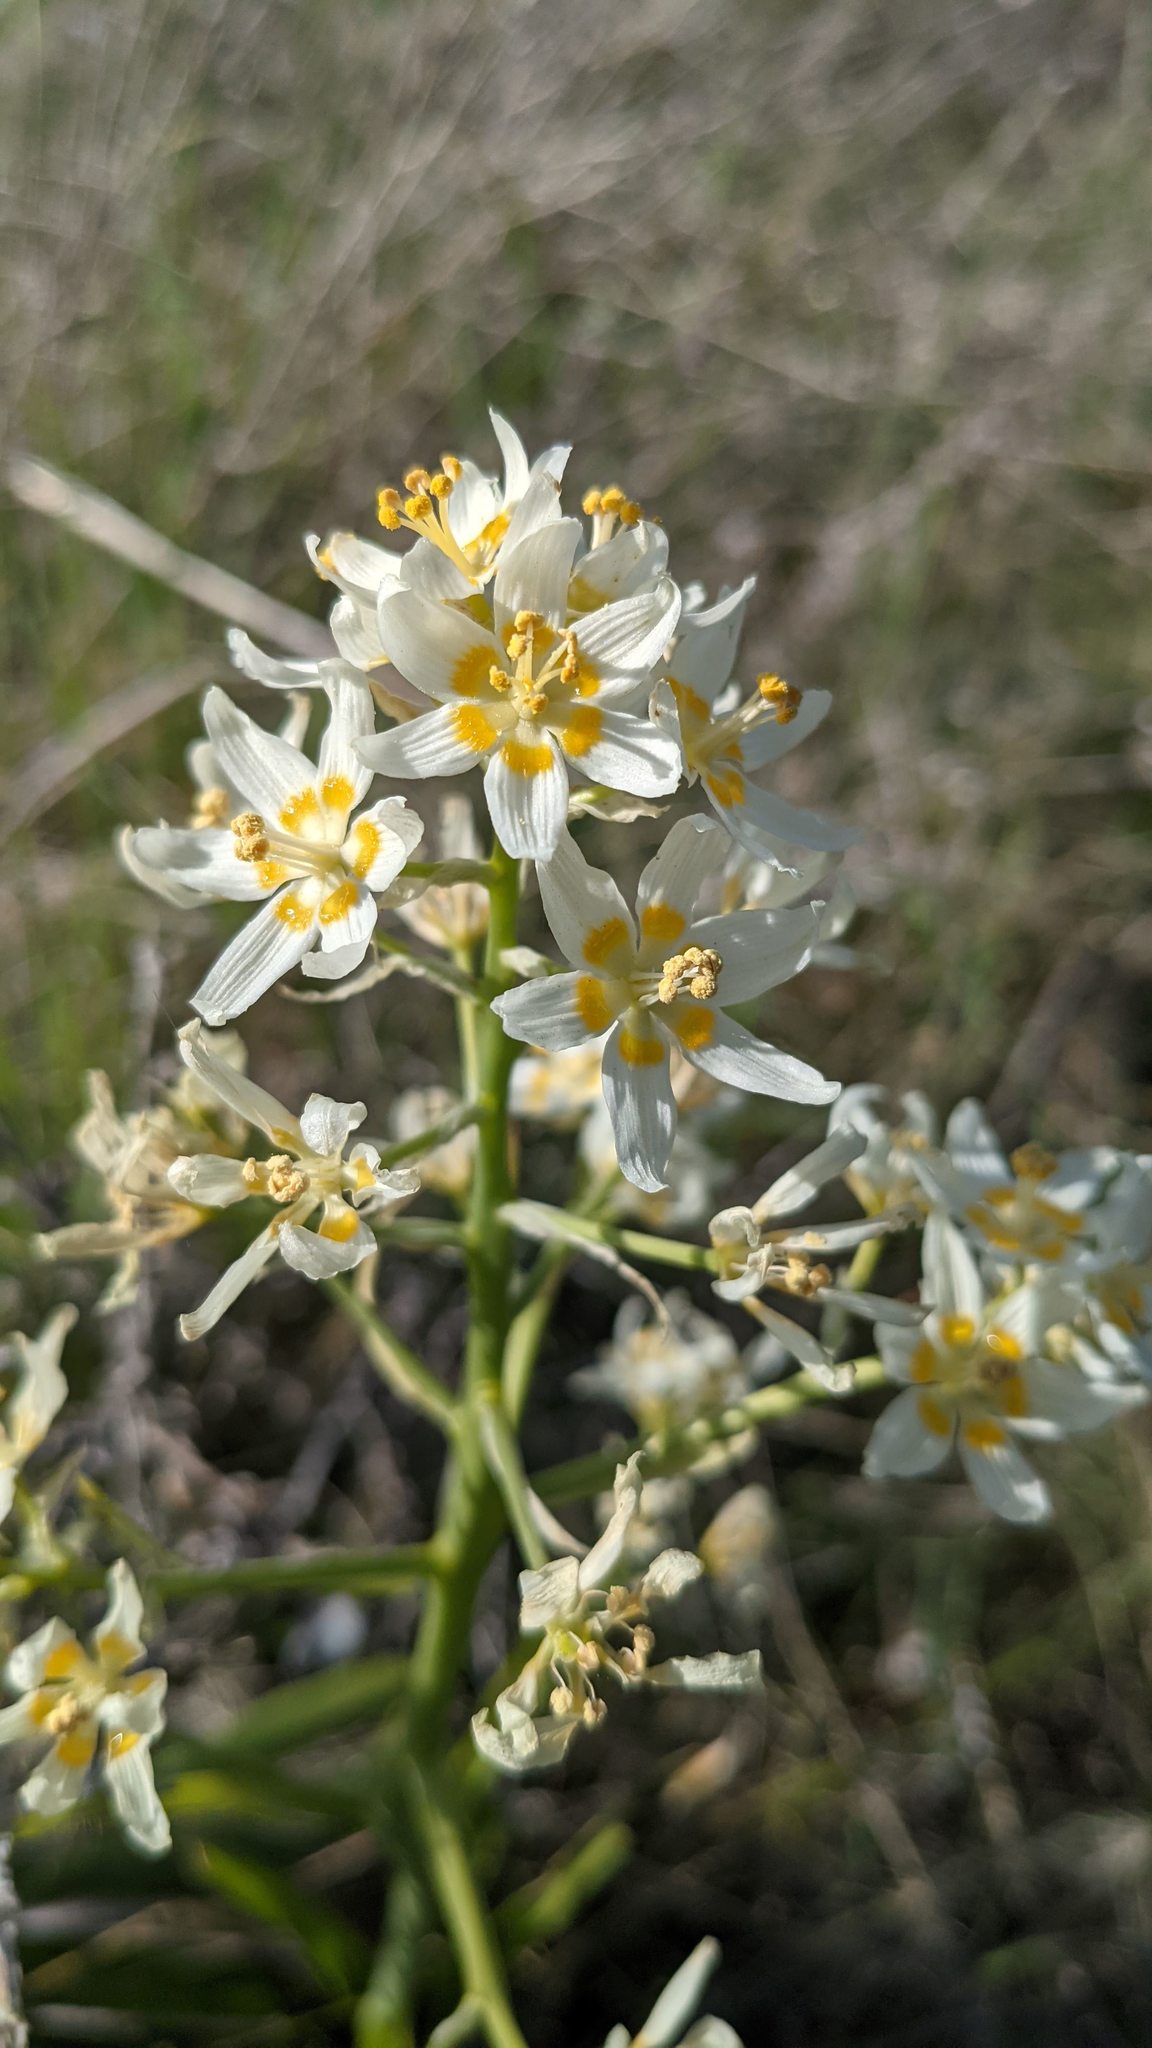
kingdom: Plantae
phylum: Tracheophyta
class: Liliopsida
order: Liliales
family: Melanthiaceae
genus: Toxicoscordion
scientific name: Toxicoscordion fremontii
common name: Fremont's death camas
